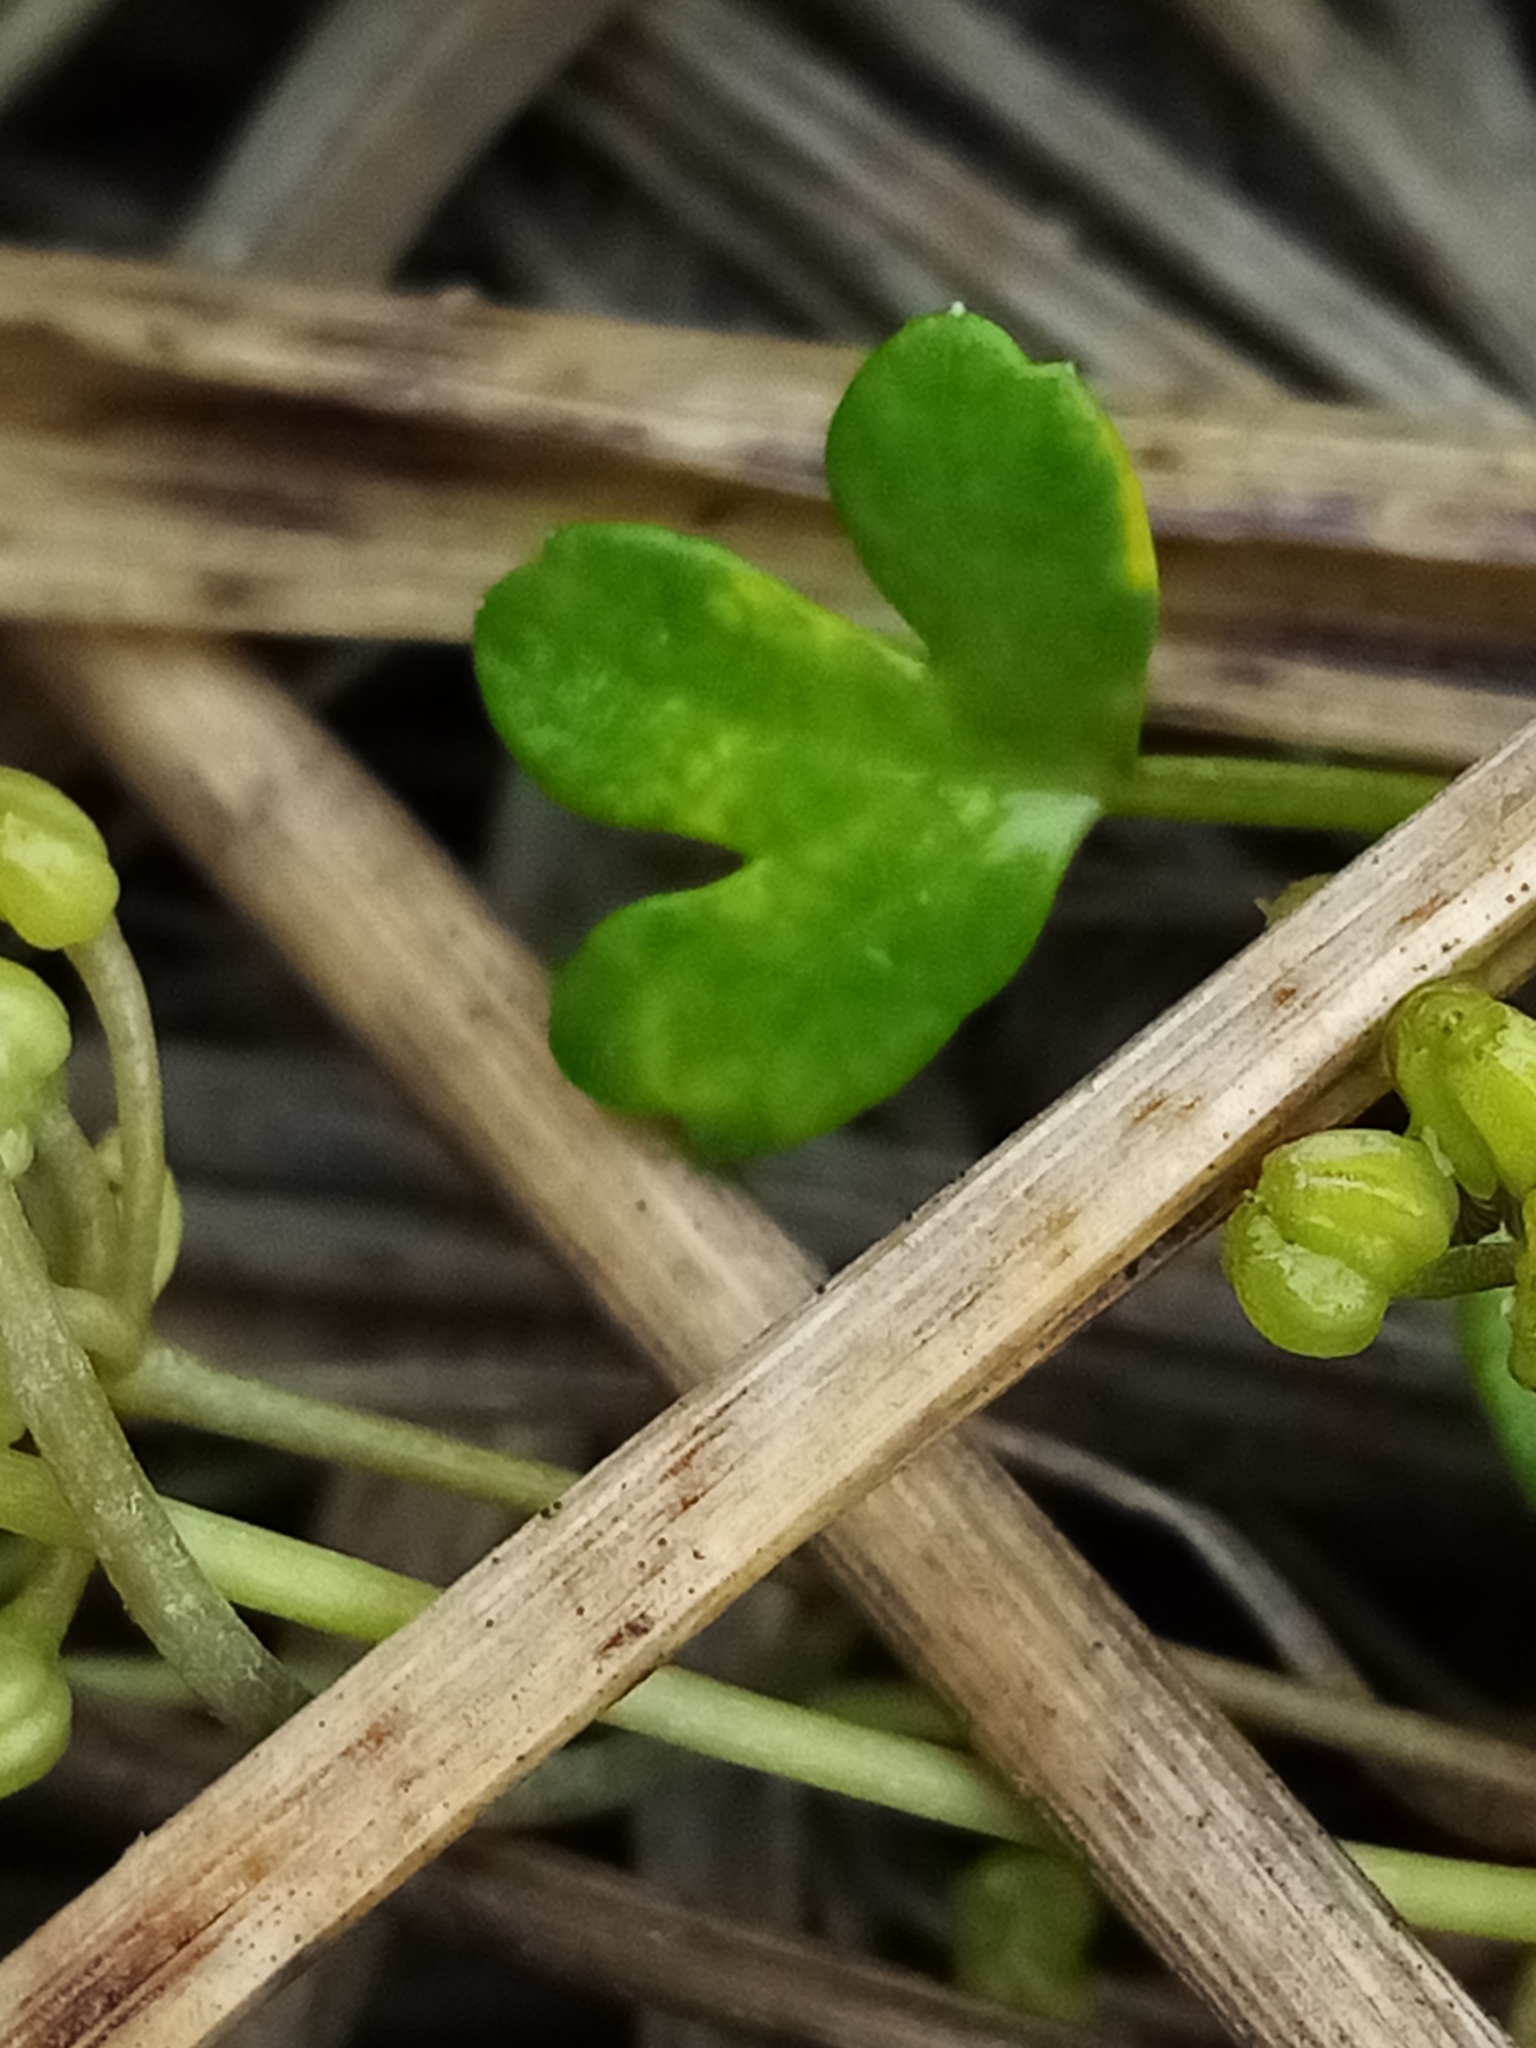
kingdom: Plantae
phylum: Tracheophyta
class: Magnoliopsida
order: Apiales
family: Apiaceae
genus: Apium
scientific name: Apium prostratum
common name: Prostrate marshwort
